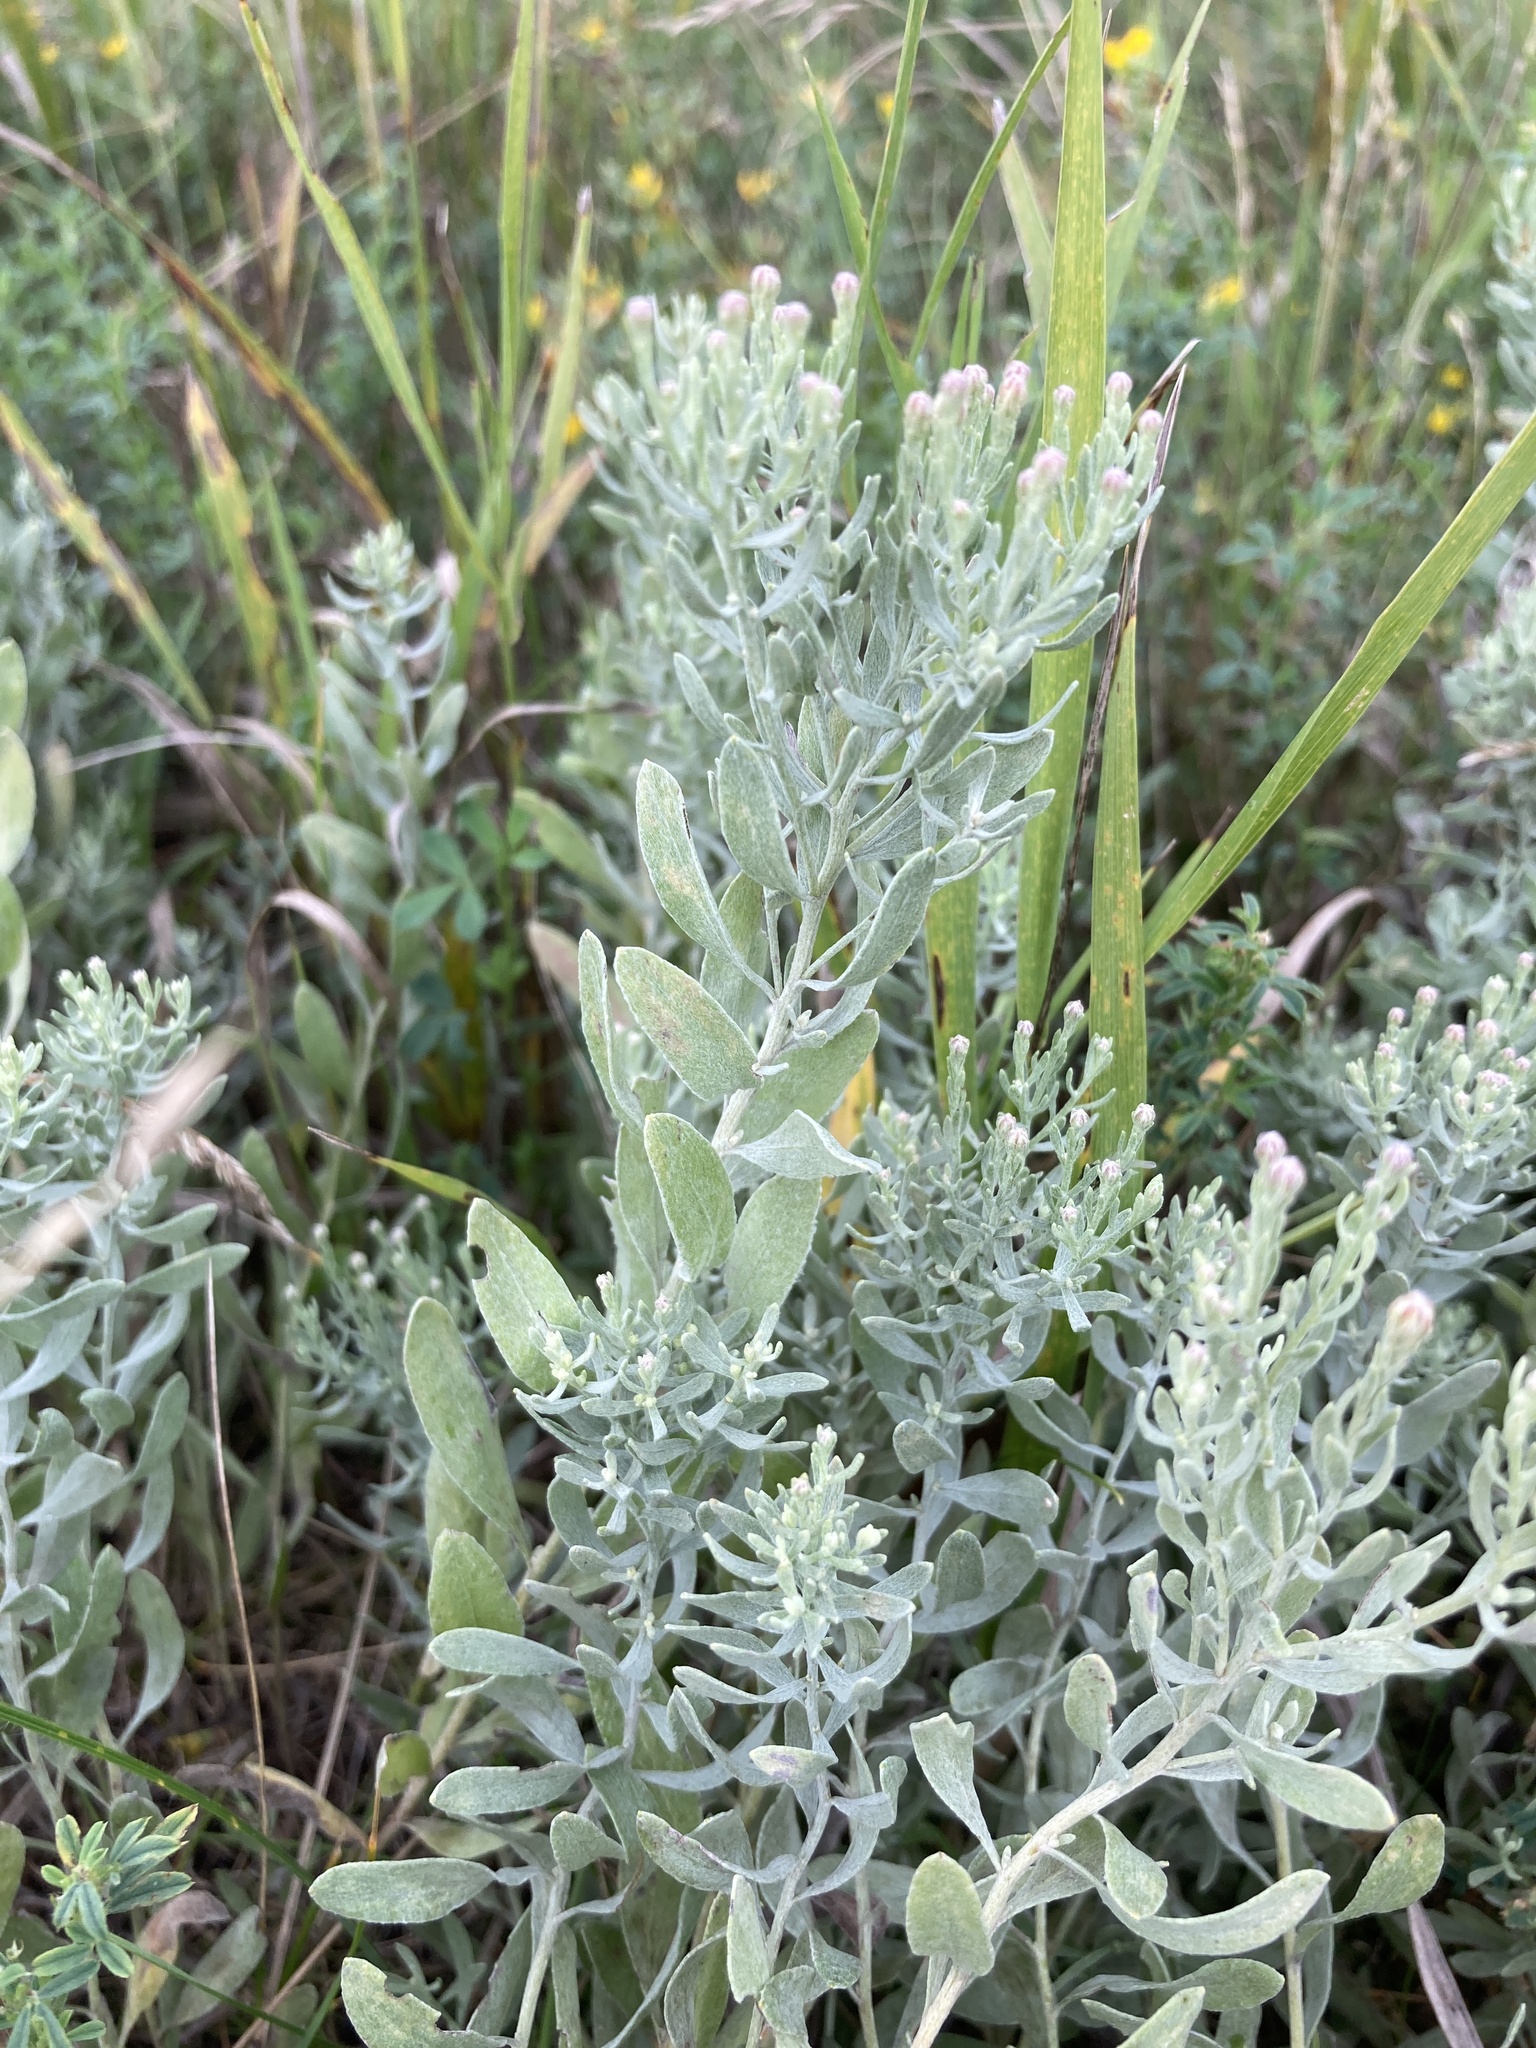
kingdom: Plantae
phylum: Tracheophyta
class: Magnoliopsida
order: Asterales
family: Asteraceae
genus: Galatella
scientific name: Galatella villosa
